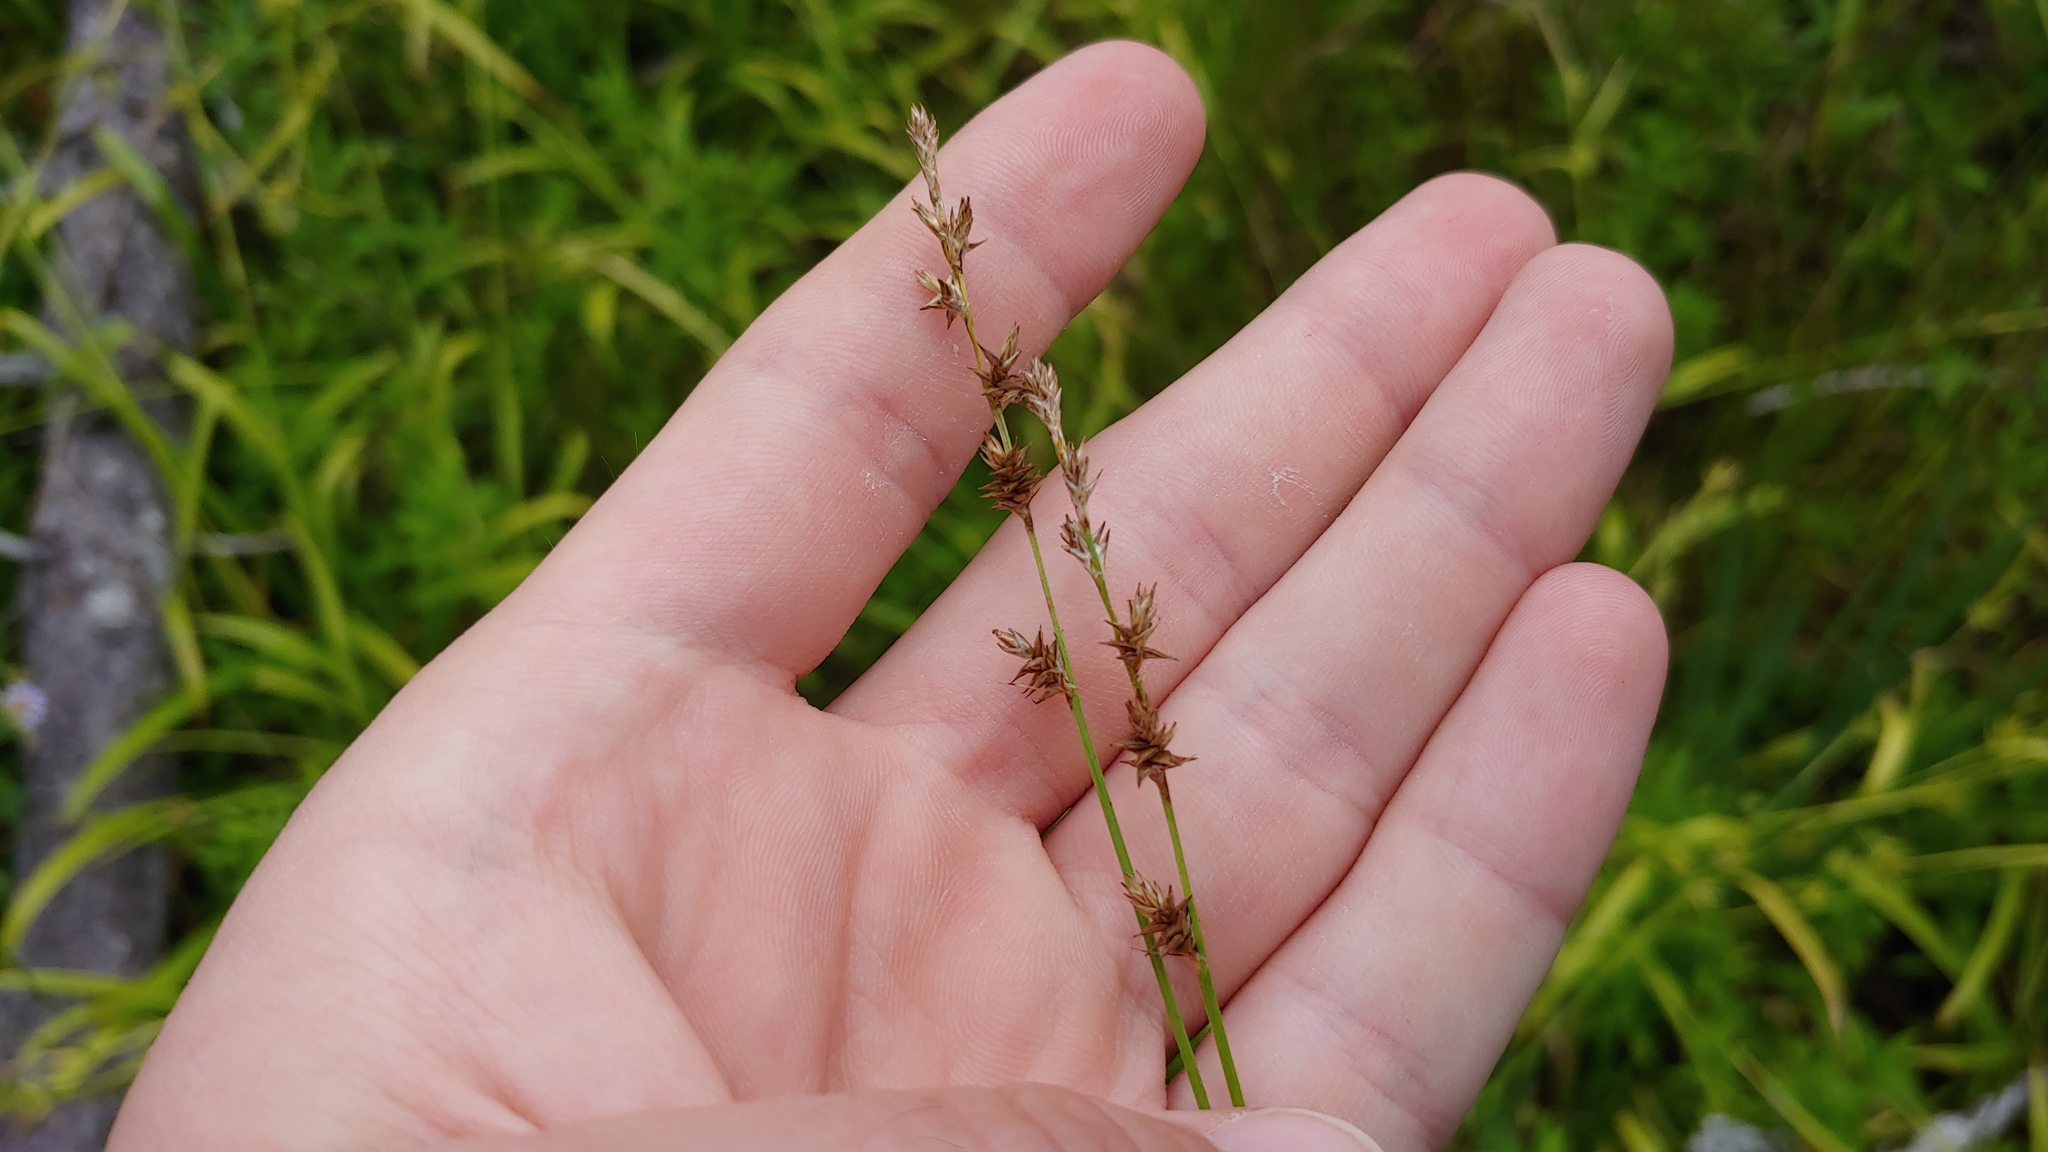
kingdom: Plantae
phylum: Tracheophyta
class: Liliopsida
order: Poales
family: Cyperaceae
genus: Carex
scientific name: Carex echinata
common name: Star sedge
